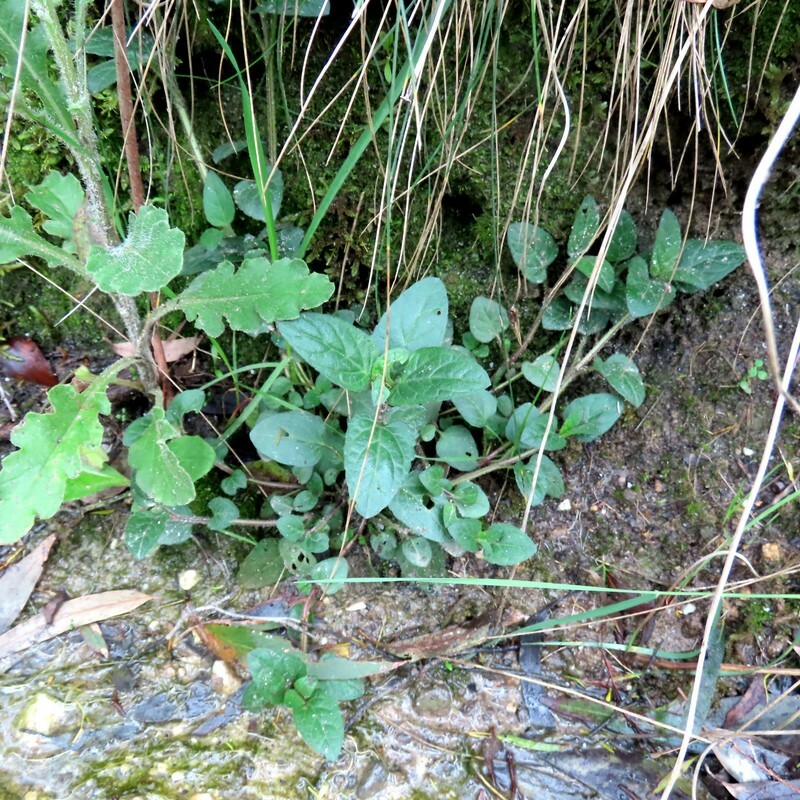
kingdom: Plantae
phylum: Tracheophyta
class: Magnoliopsida
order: Lamiales
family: Lamiaceae
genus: Prunella
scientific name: Prunella vulgaris
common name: Heal-all
